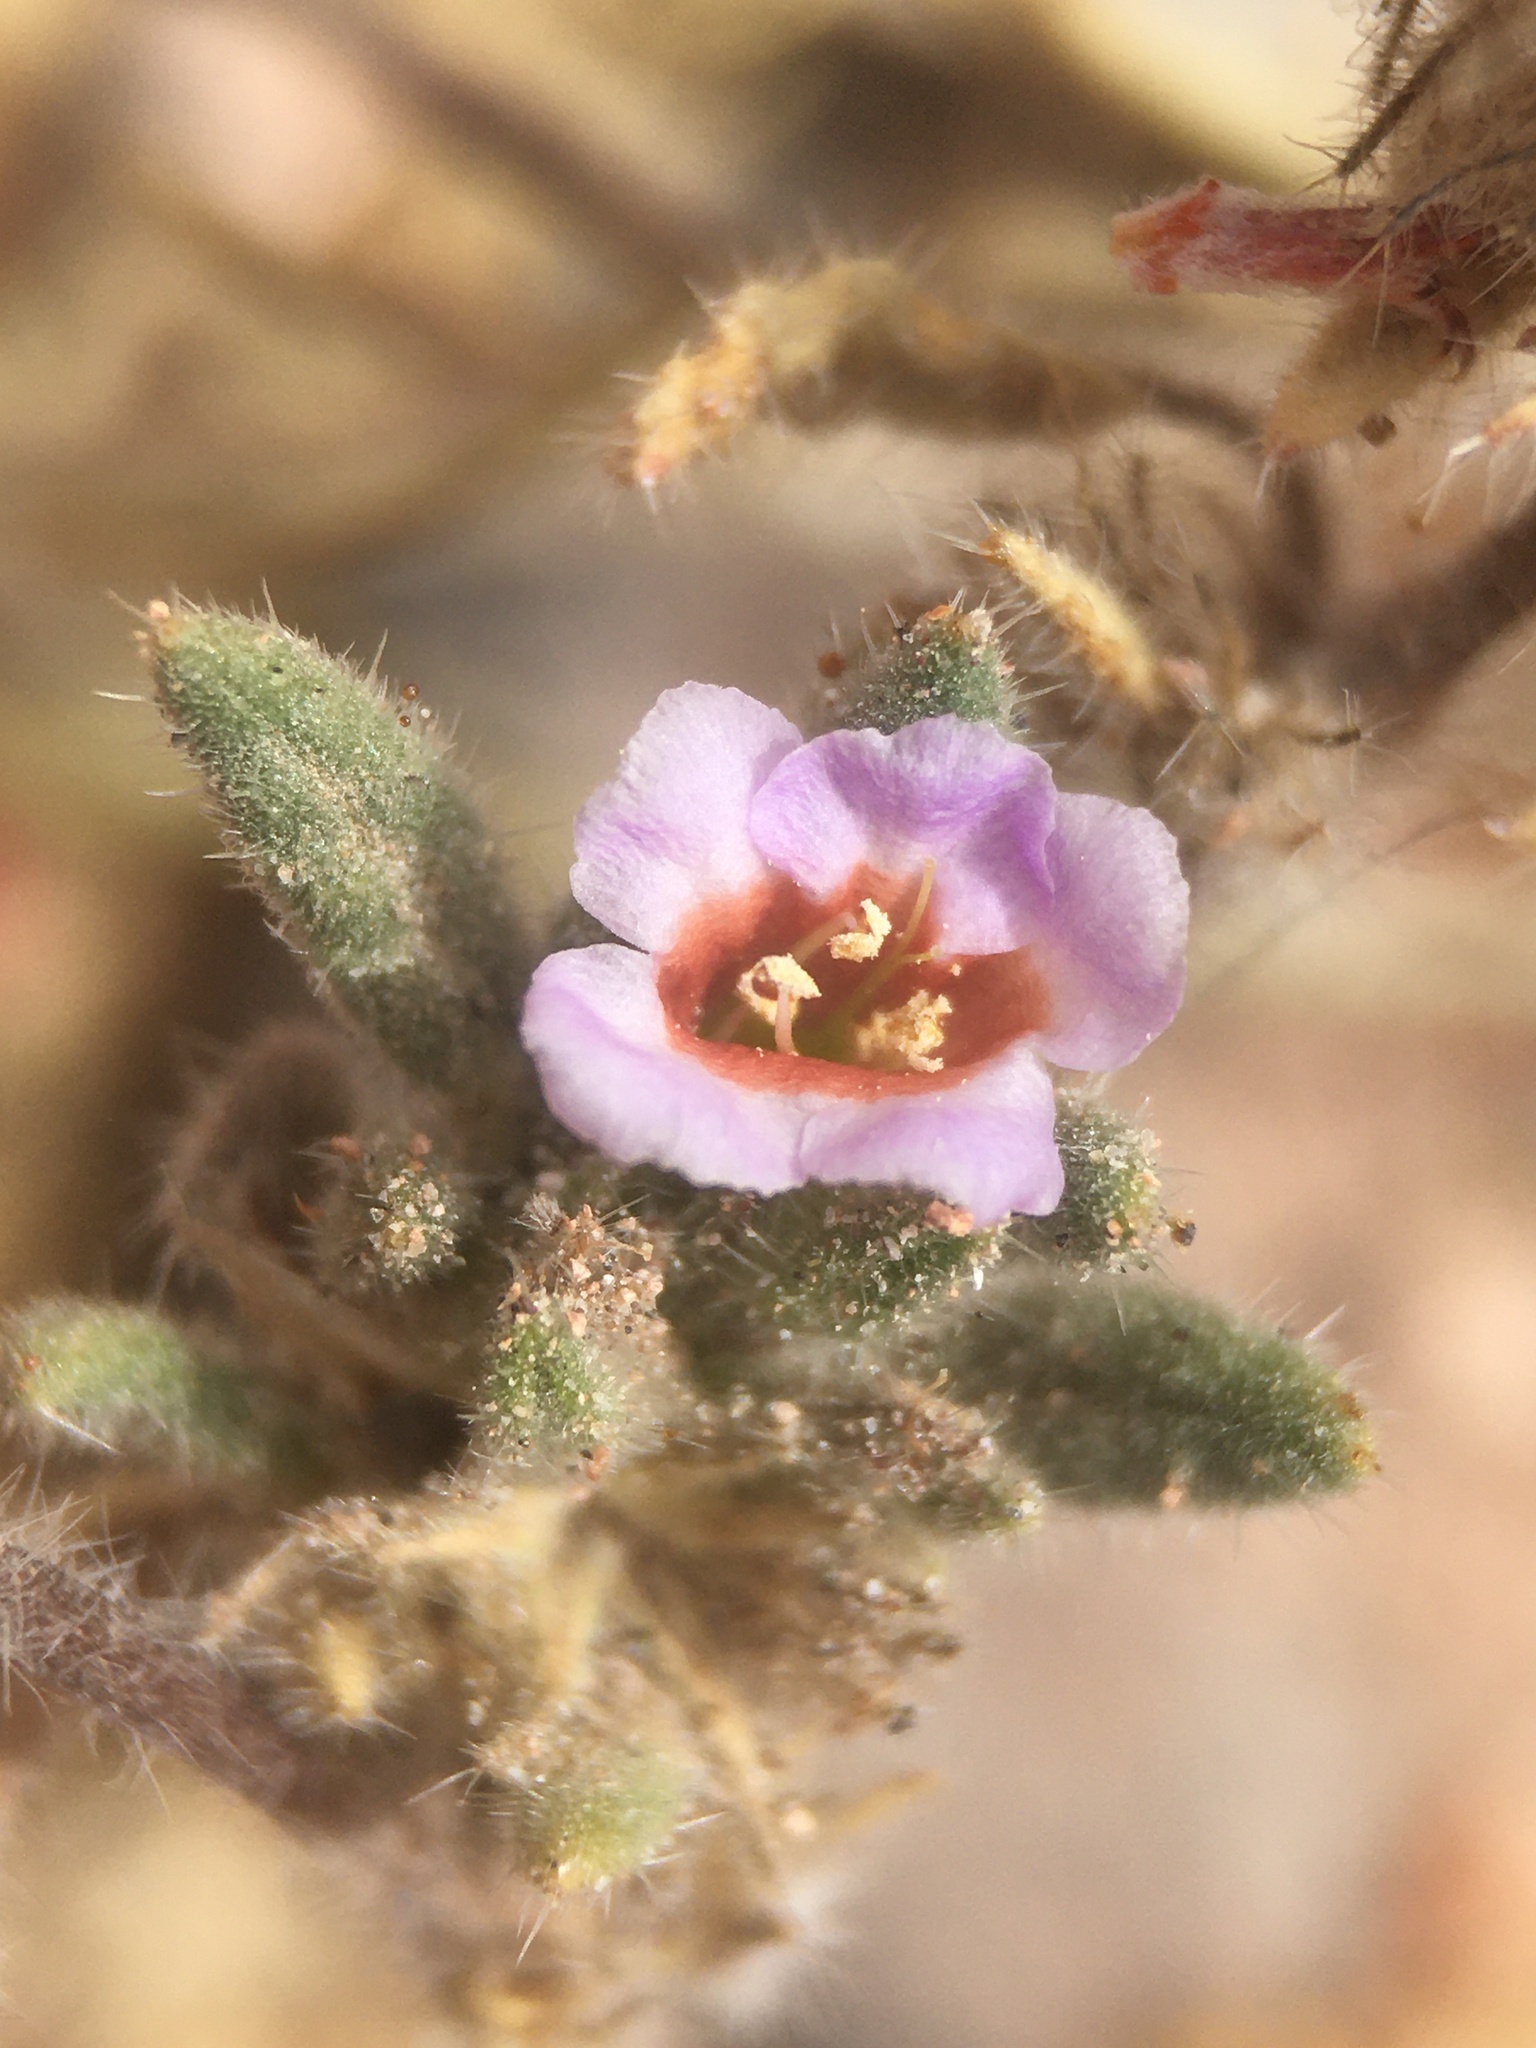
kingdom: Plantae
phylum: Tracheophyta
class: Magnoliopsida
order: Boraginales
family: Ehretiaceae
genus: Tiquilia
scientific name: Tiquilia atacamensis
